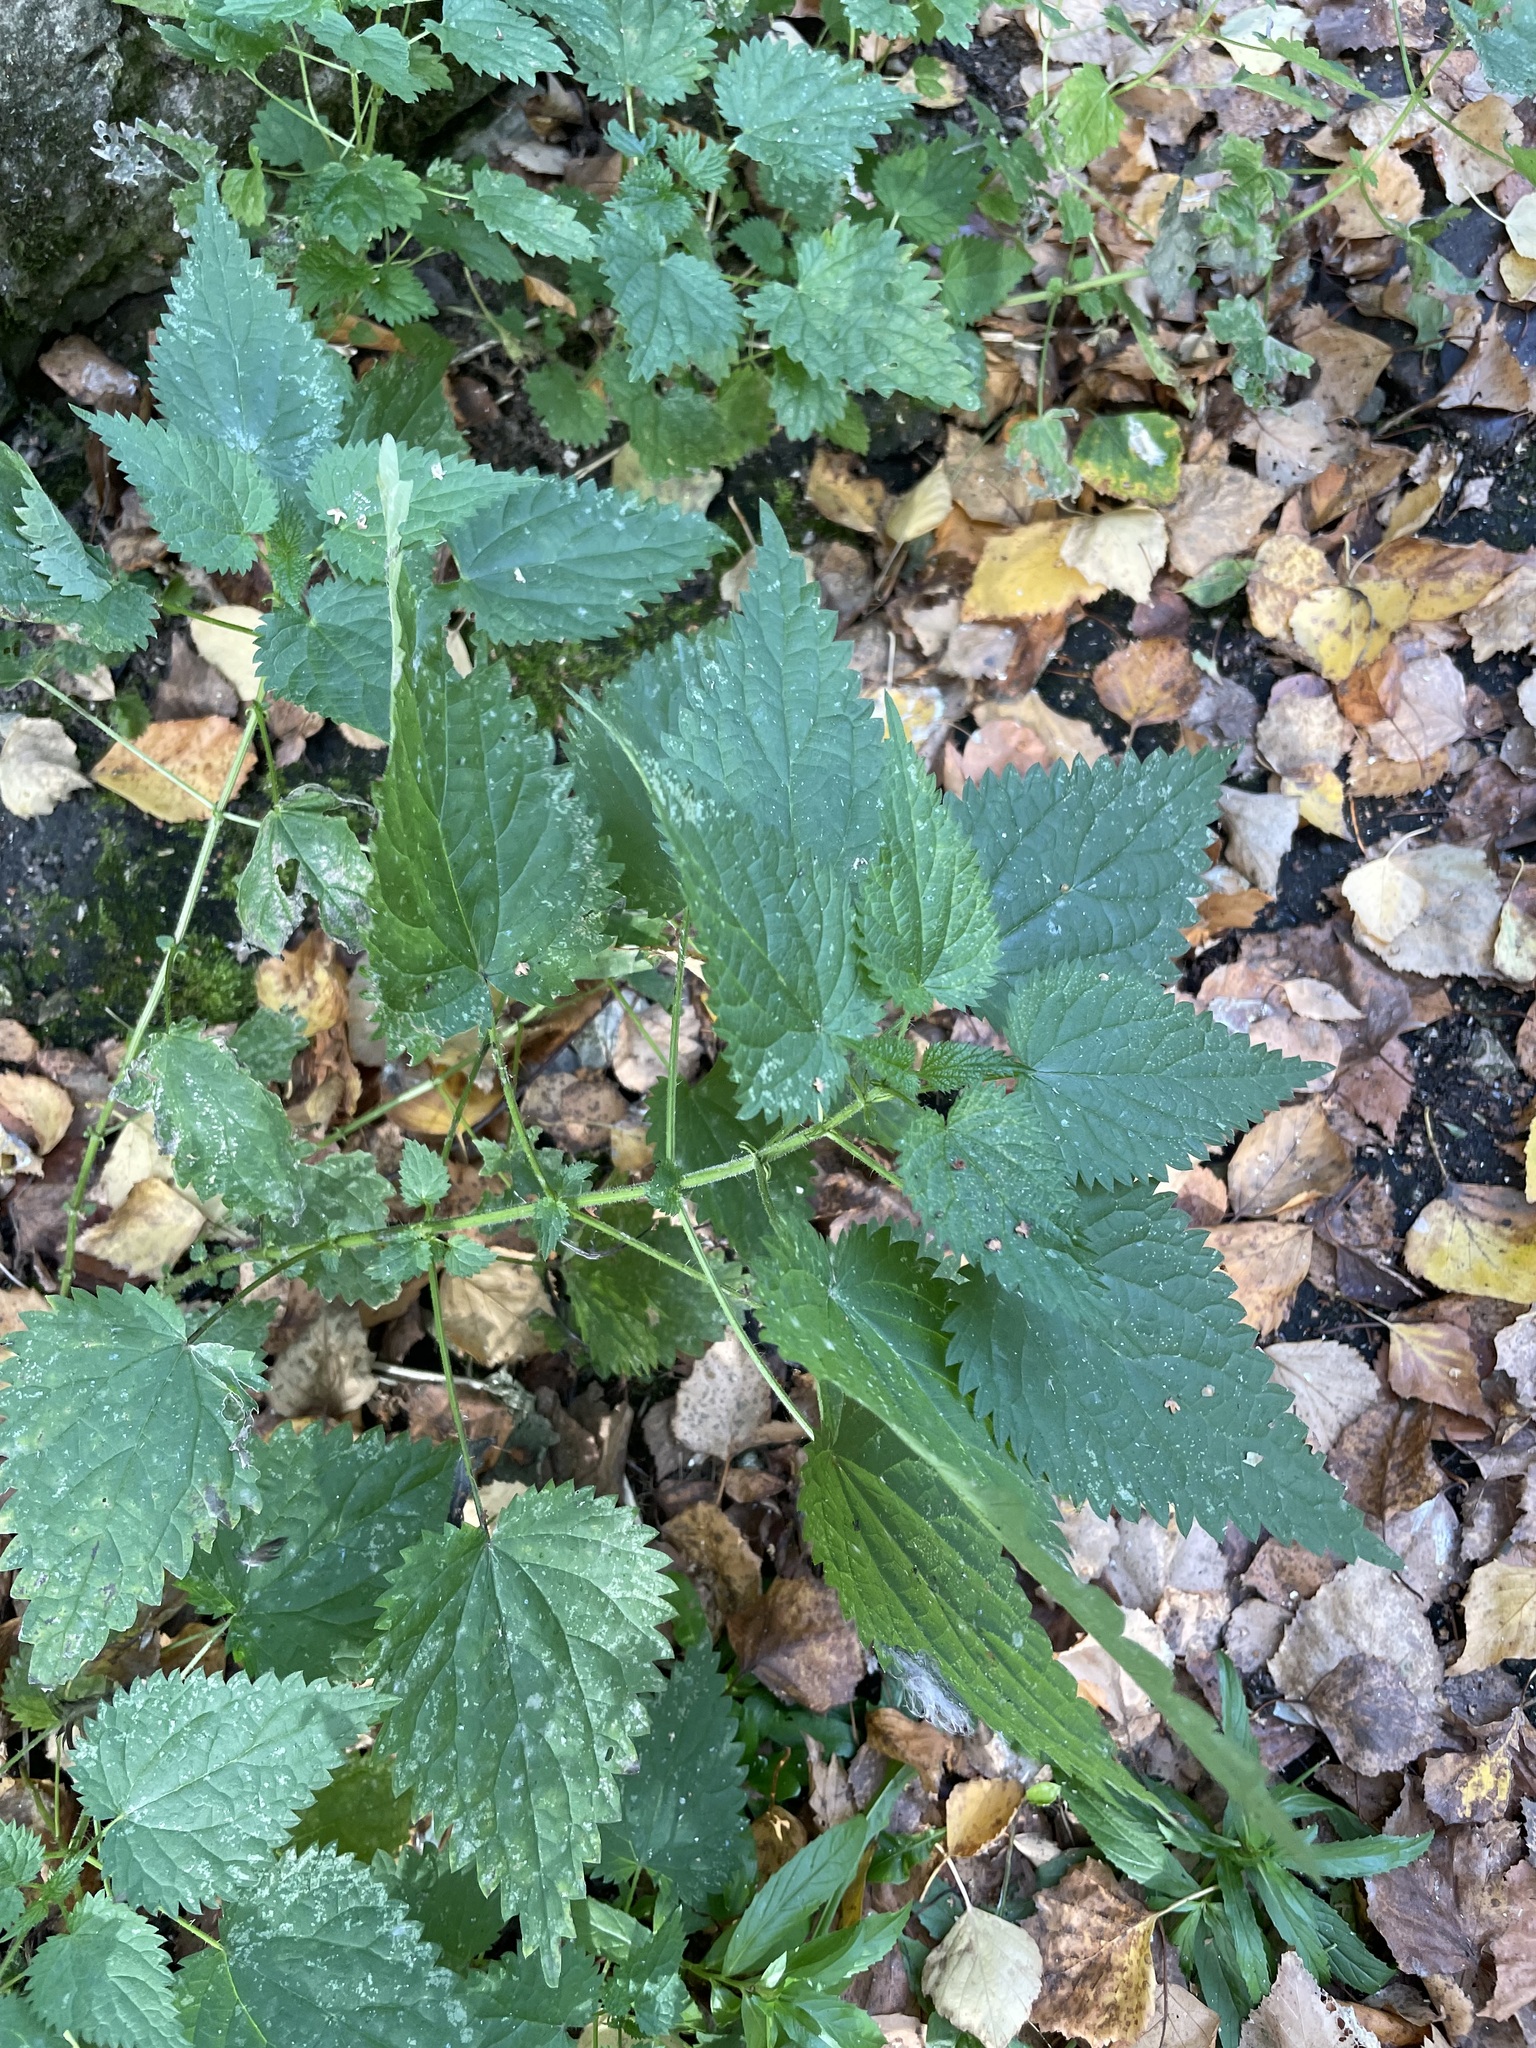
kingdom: Plantae
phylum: Tracheophyta
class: Magnoliopsida
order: Rosales
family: Urticaceae
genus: Urtica
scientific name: Urtica dioica
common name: Common nettle
